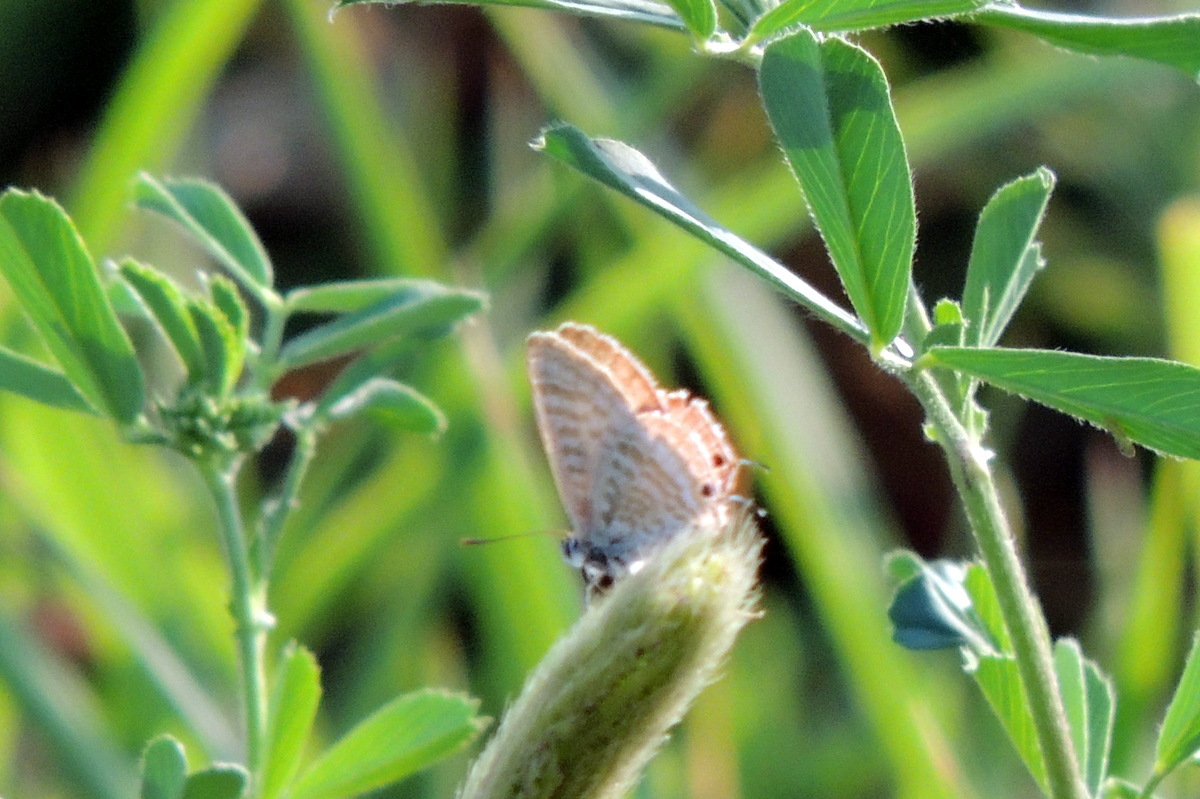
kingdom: Animalia
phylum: Arthropoda
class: Insecta
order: Lepidoptera
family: Lycaenidae
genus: Lampides
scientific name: Lampides boeticus
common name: Long-tailed blue
